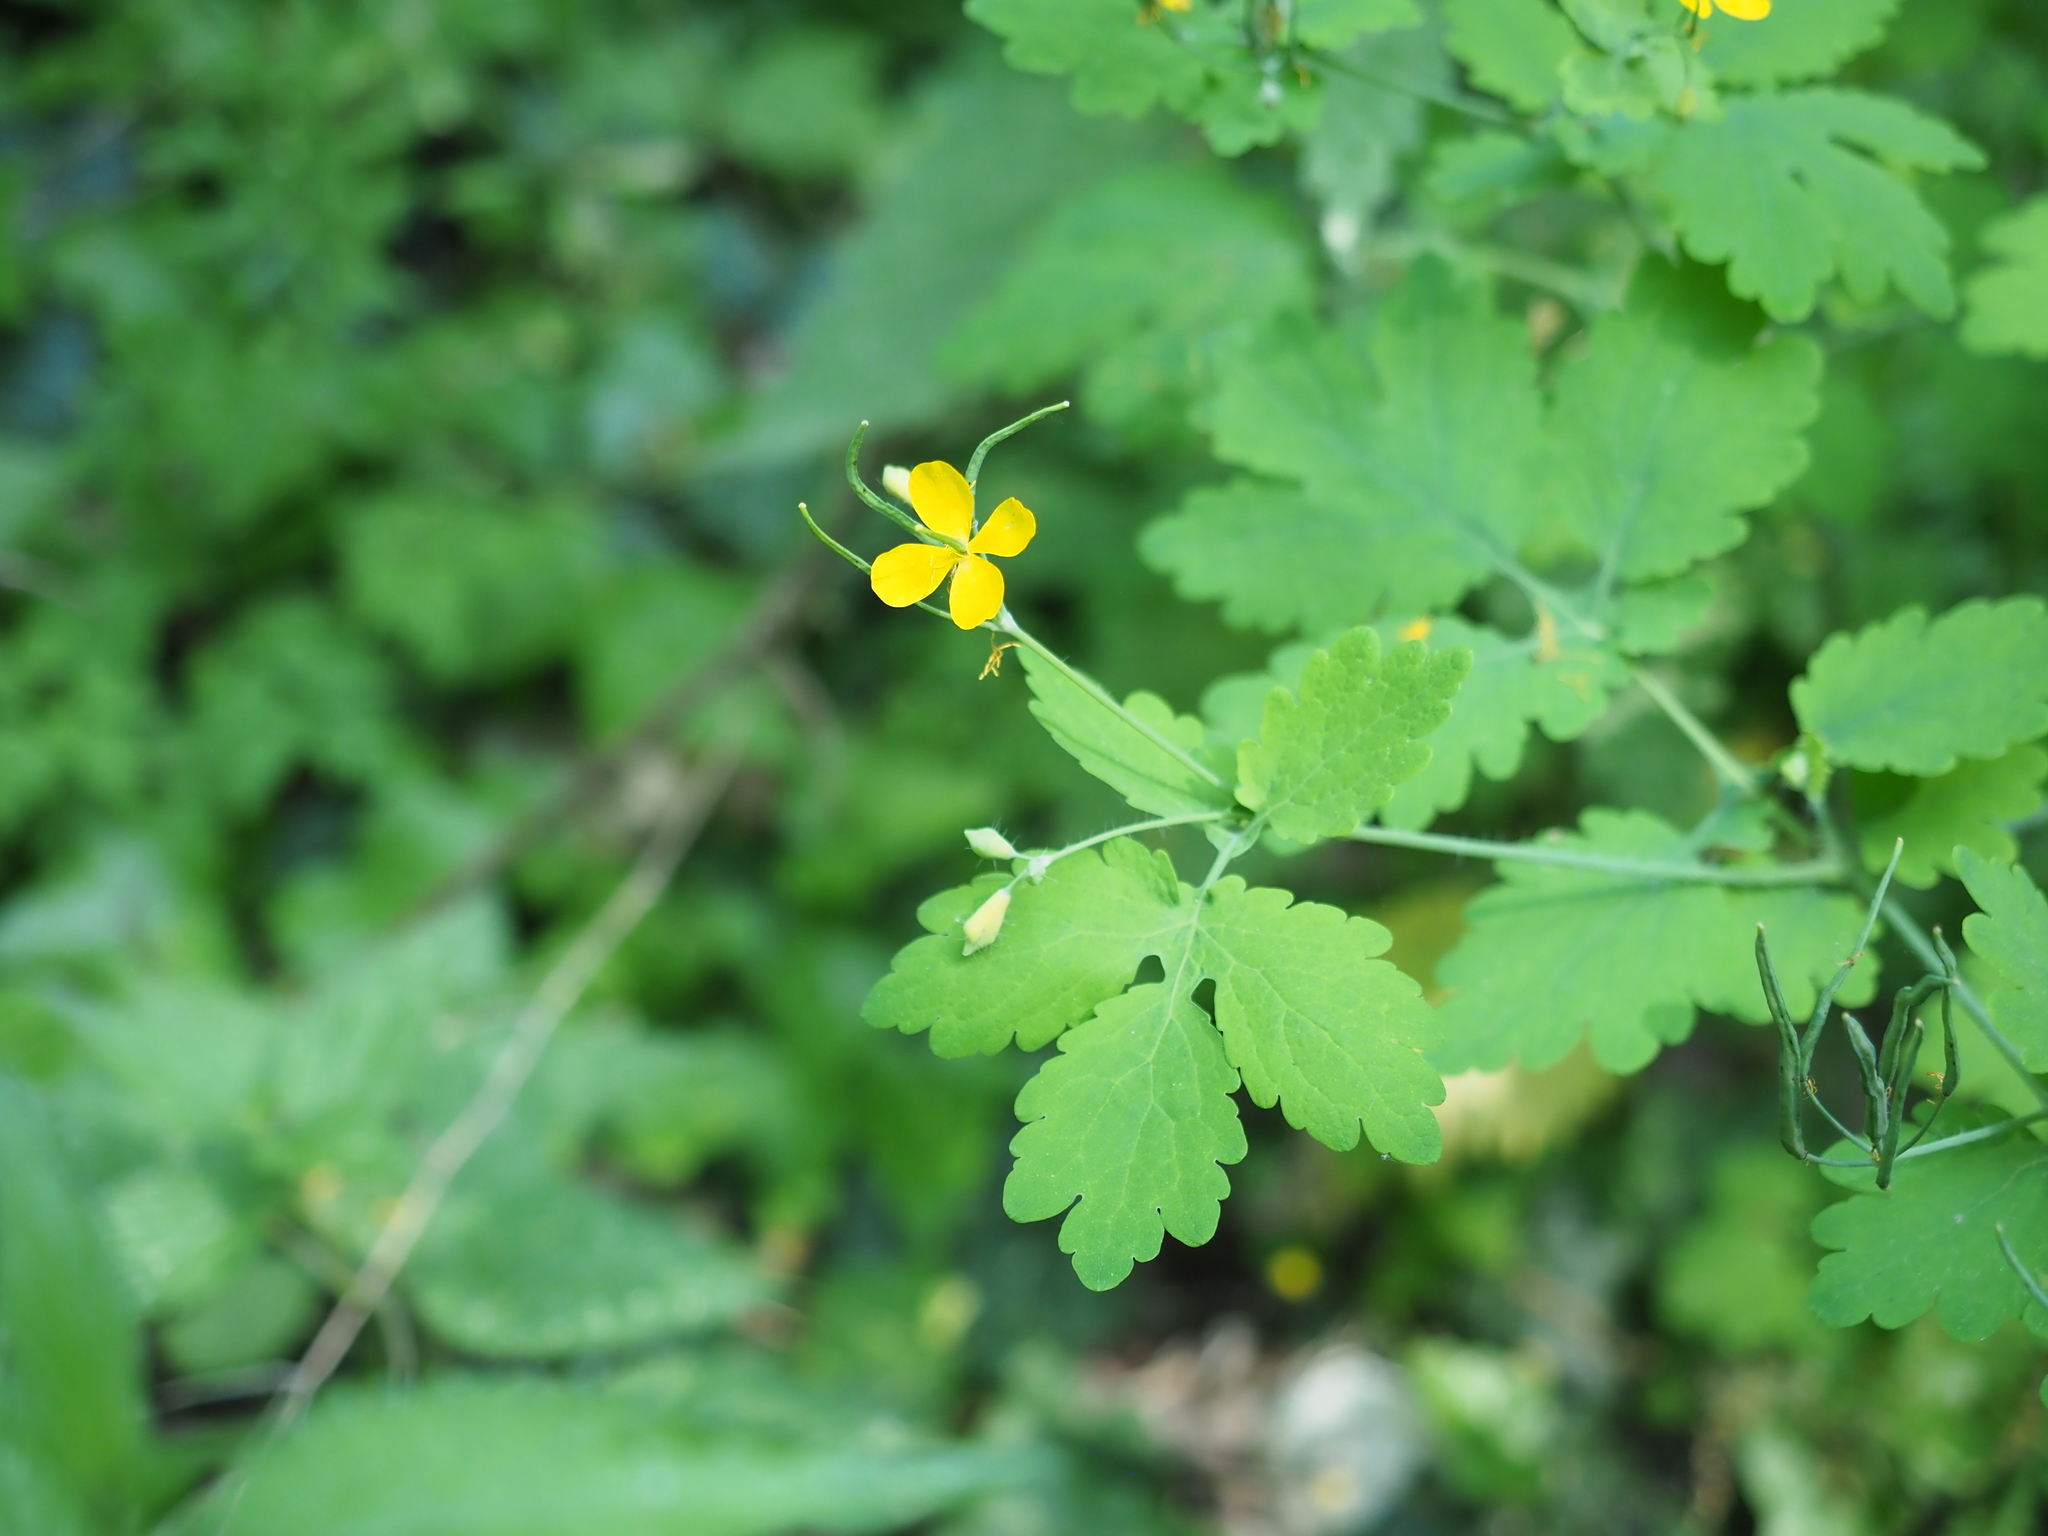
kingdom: Plantae
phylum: Tracheophyta
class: Magnoliopsida
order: Ranunculales
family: Papaveraceae
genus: Chelidonium
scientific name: Chelidonium majus
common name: Greater celandine
